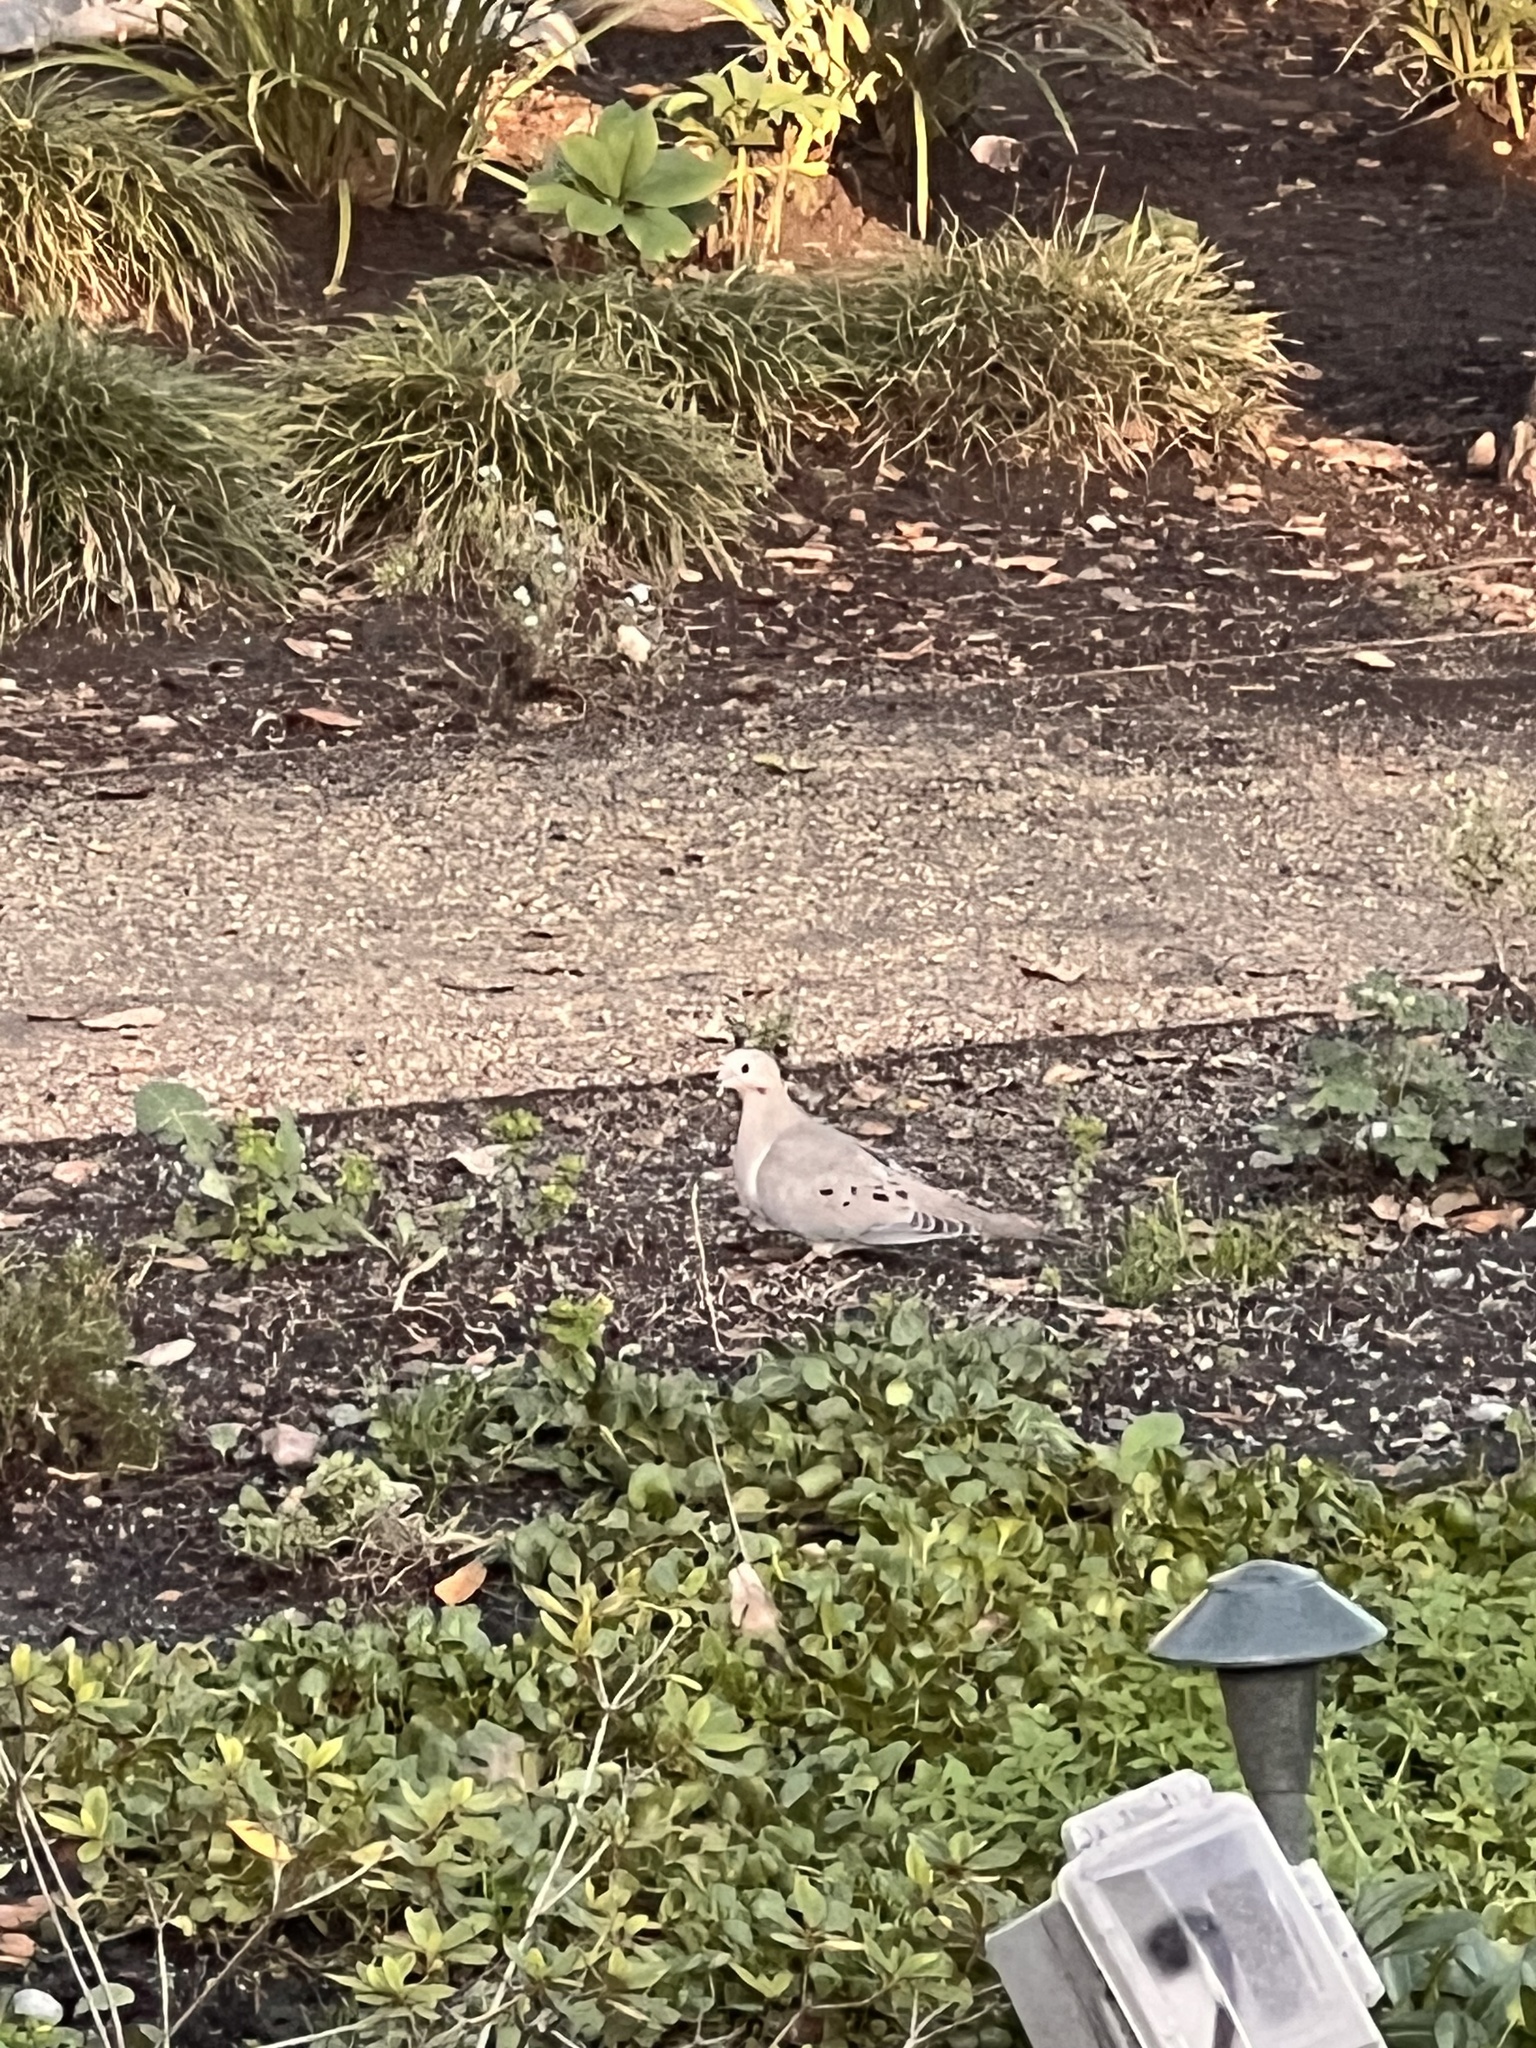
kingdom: Animalia
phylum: Chordata
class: Aves
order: Columbiformes
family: Columbidae
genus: Zenaida
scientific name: Zenaida macroura
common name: Mourning dove
